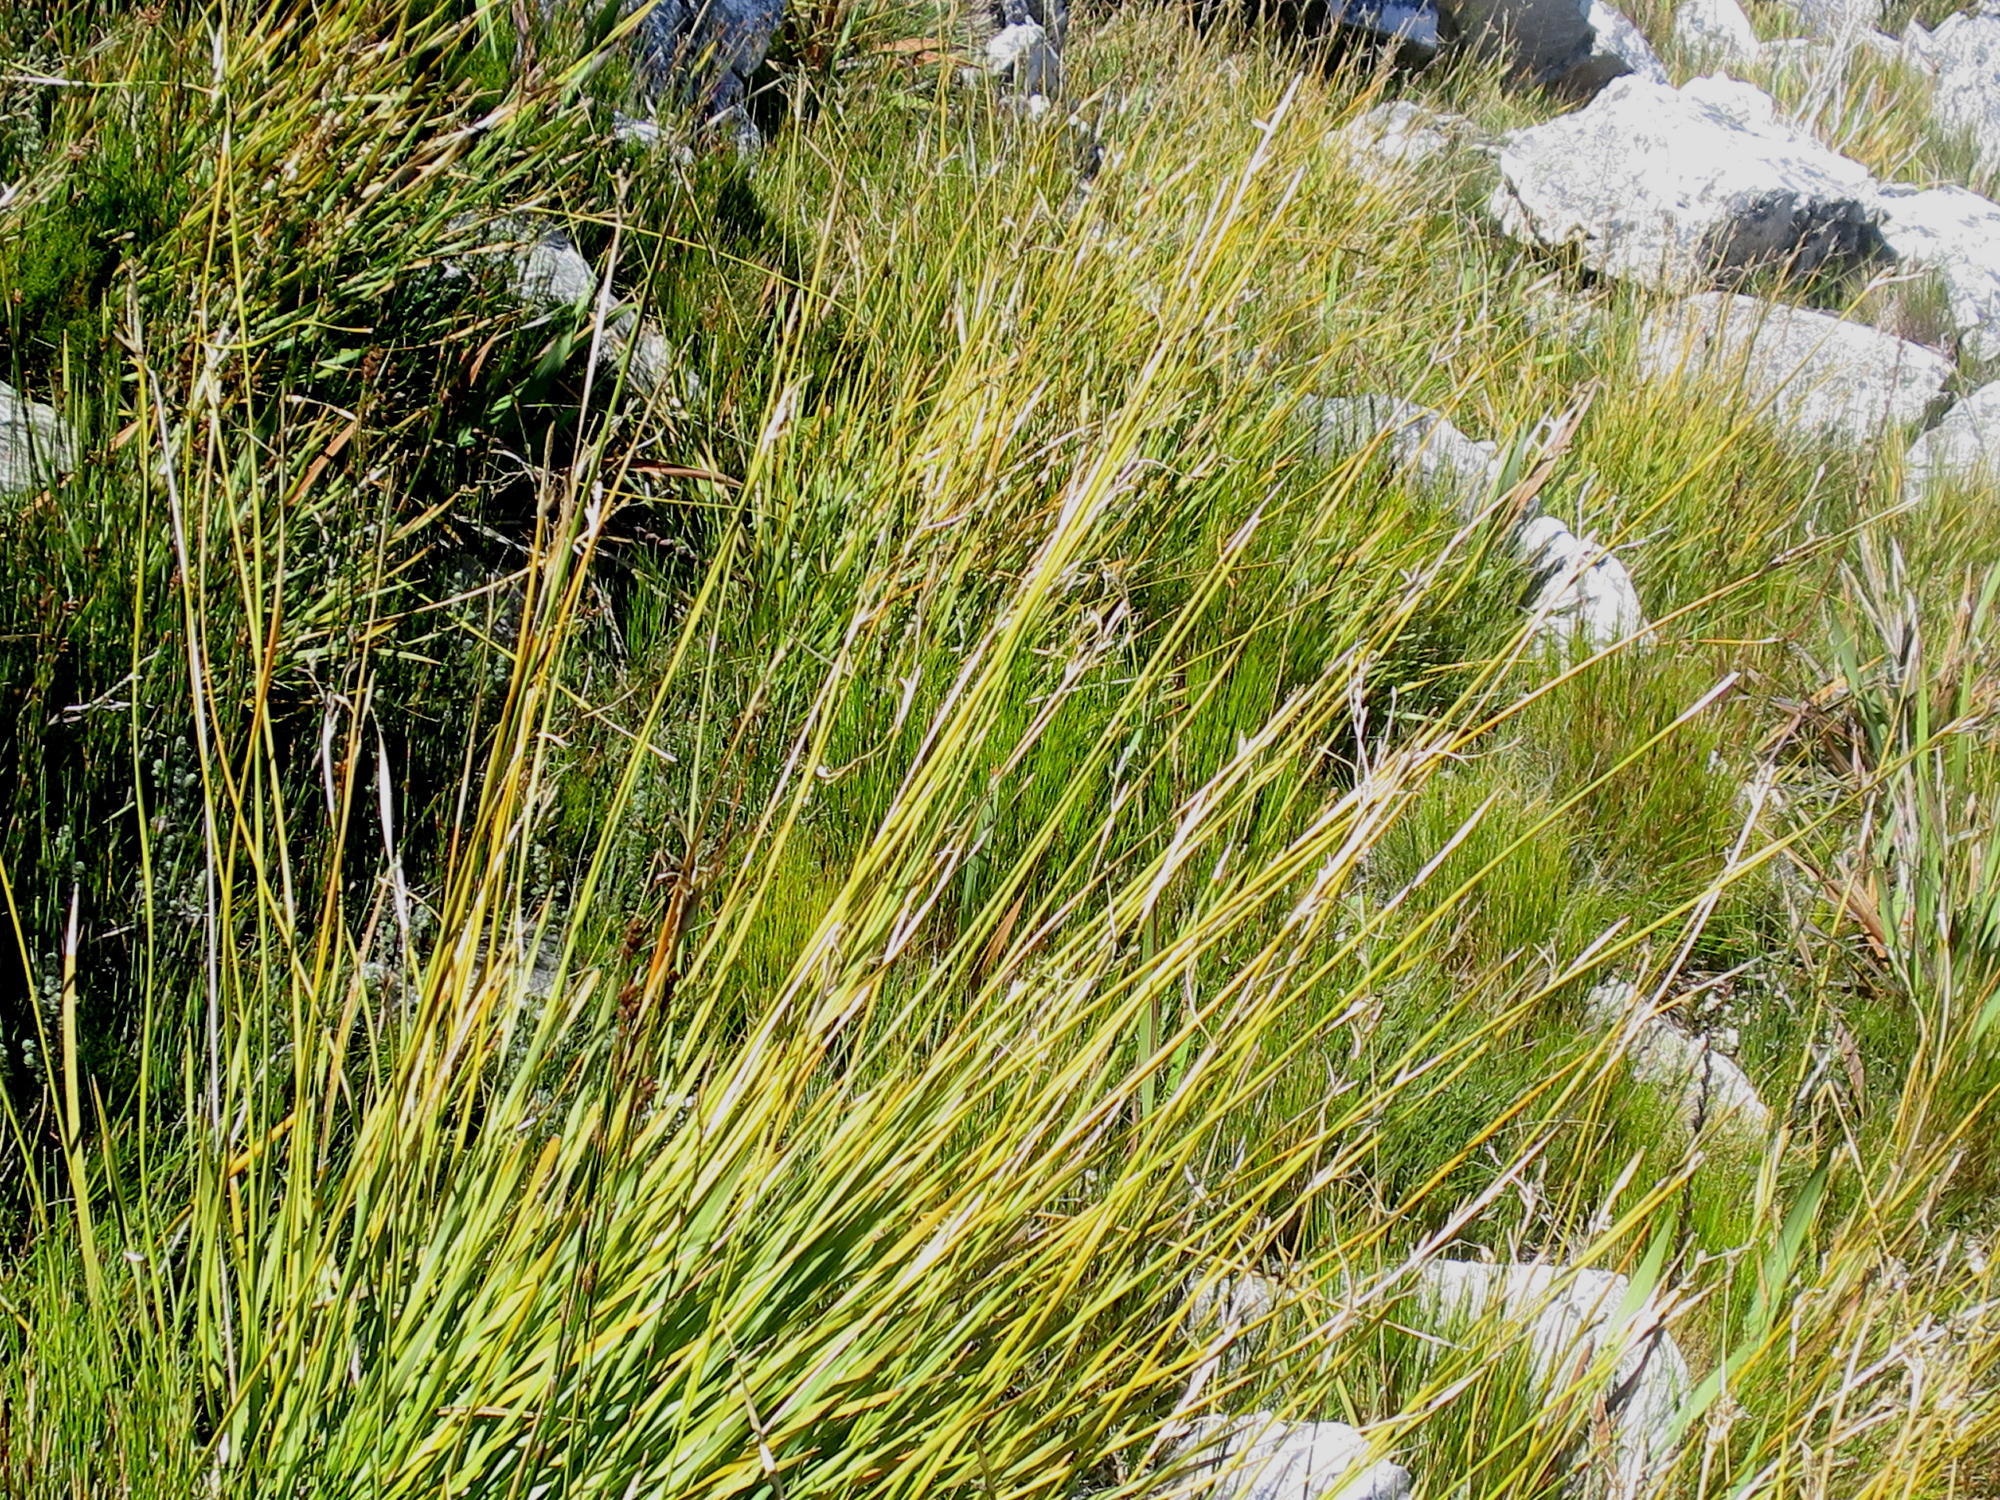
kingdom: Plantae
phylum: Tracheophyta
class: Liliopsida
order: Asparagales
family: Iridaceae
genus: Bobartia
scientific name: Bobartia paniculata
